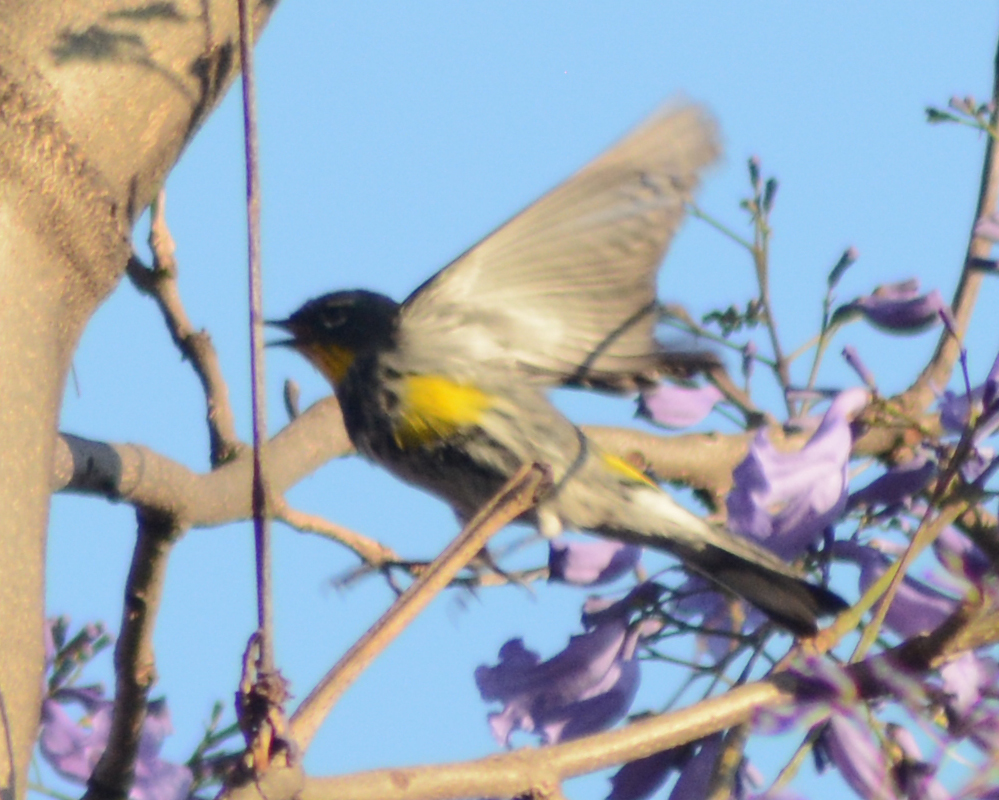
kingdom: Animalia
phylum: Chordata
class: Aves
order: Passeriformes
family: Parulidae
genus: Setophaga
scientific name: Setophaga auduboni
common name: Audubon's warbler
